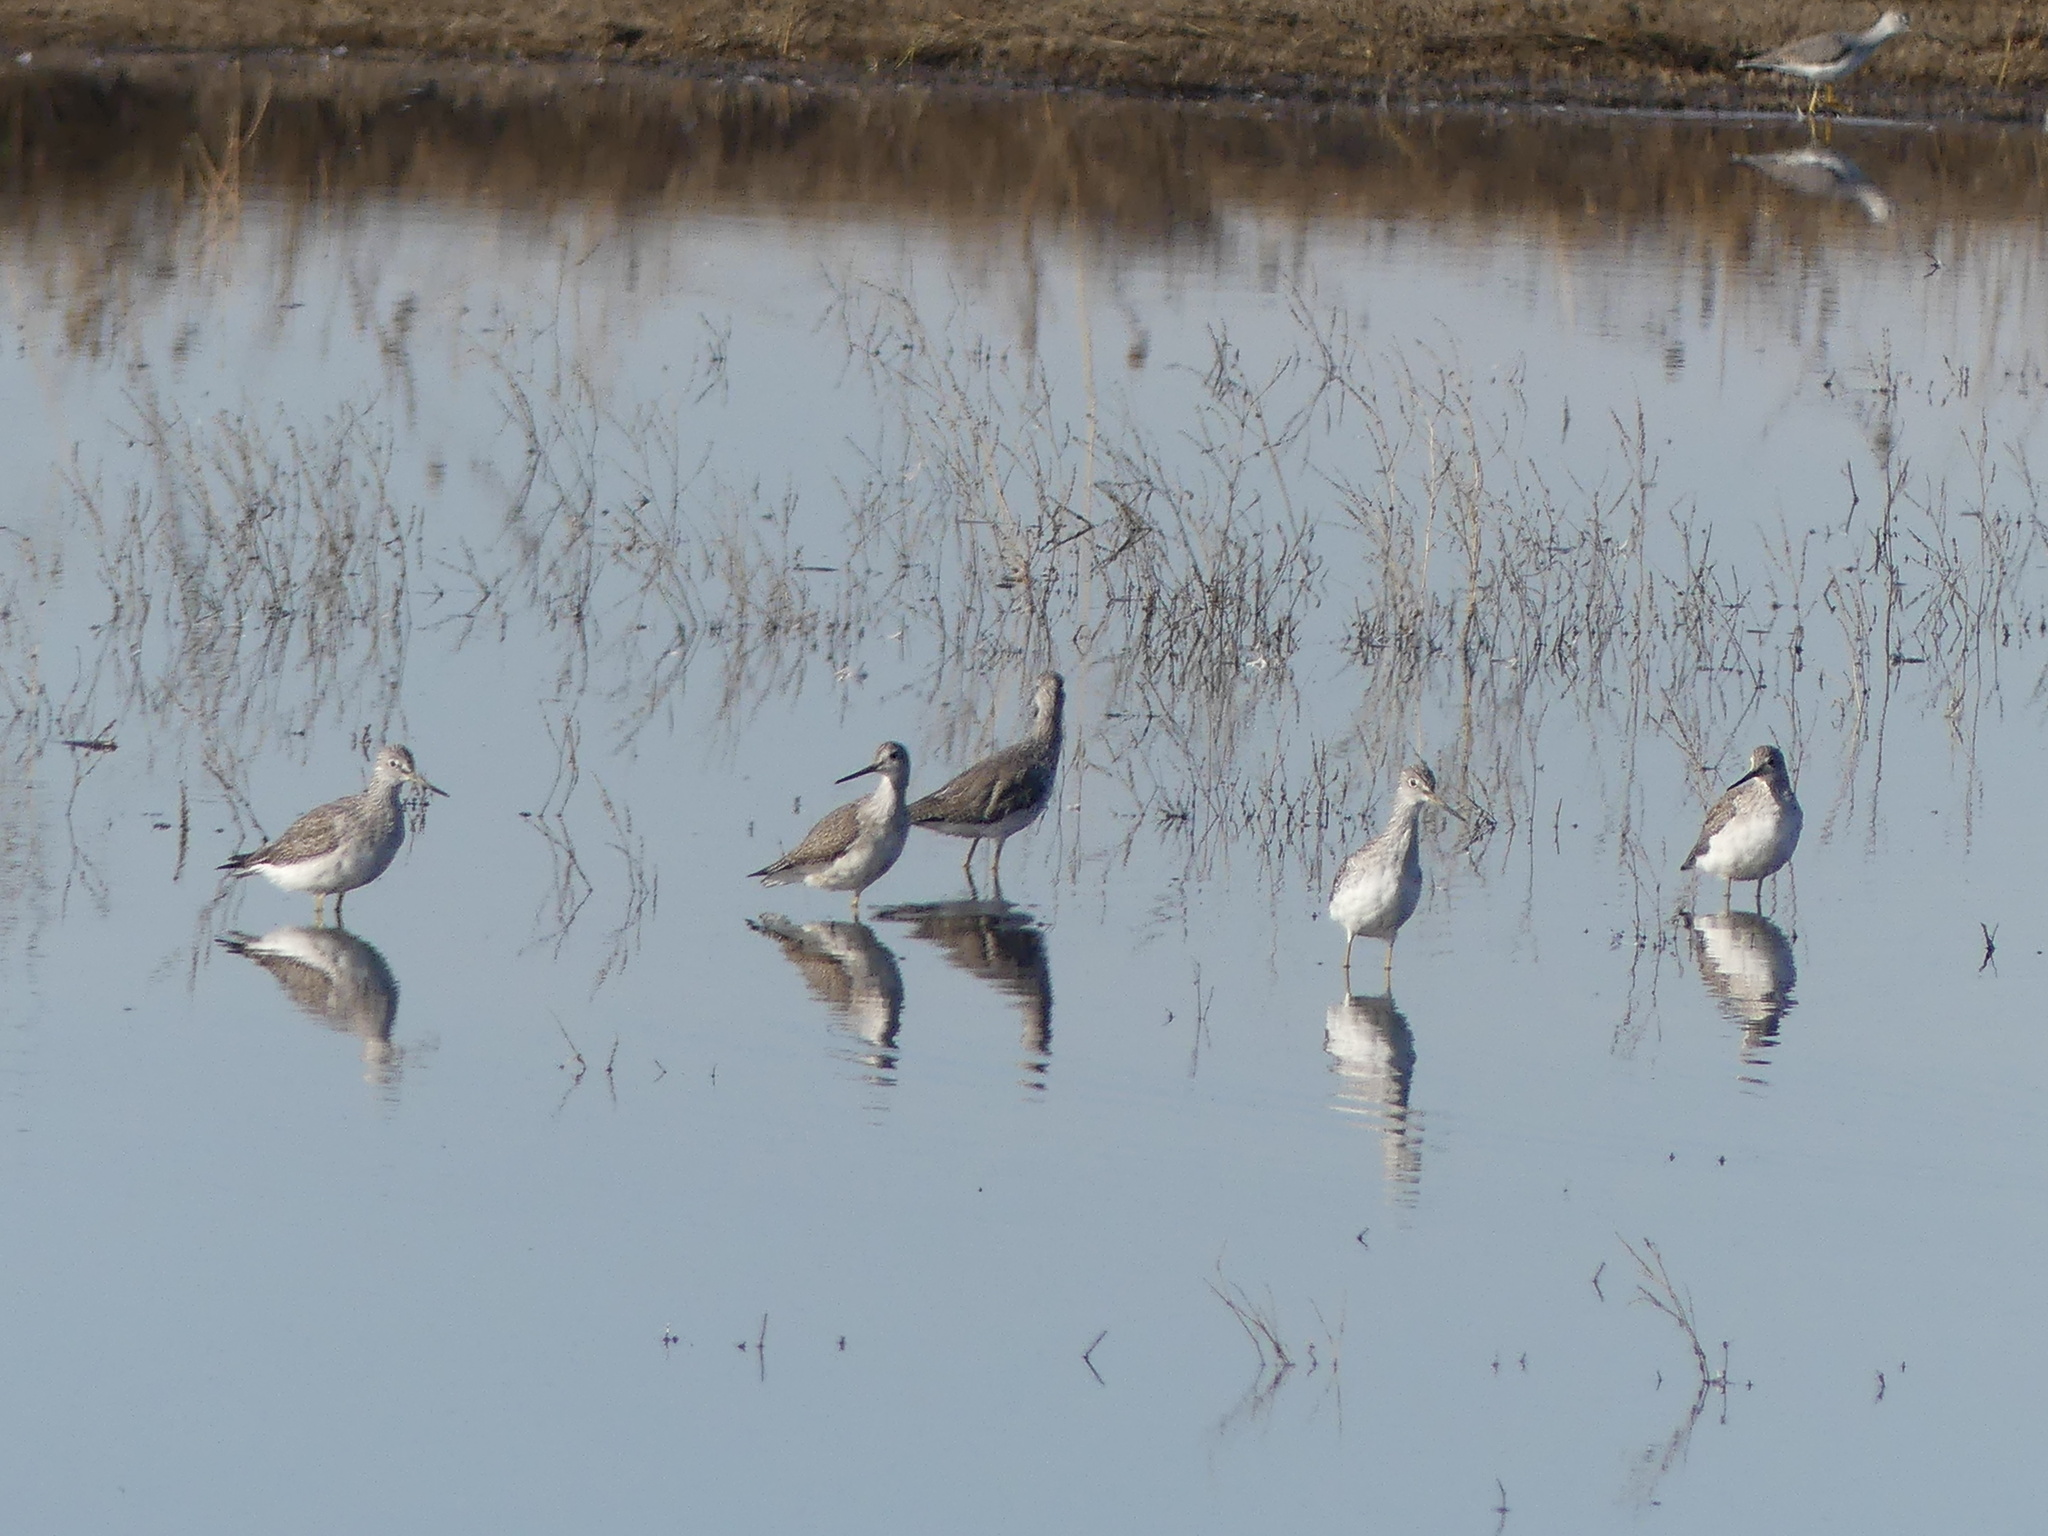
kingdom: Animalia
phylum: Chordata
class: Aves
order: Charadriiformes
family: Scolopacidae
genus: Tringa
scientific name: Tringa melanoleuca
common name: Greater yellowlegs
